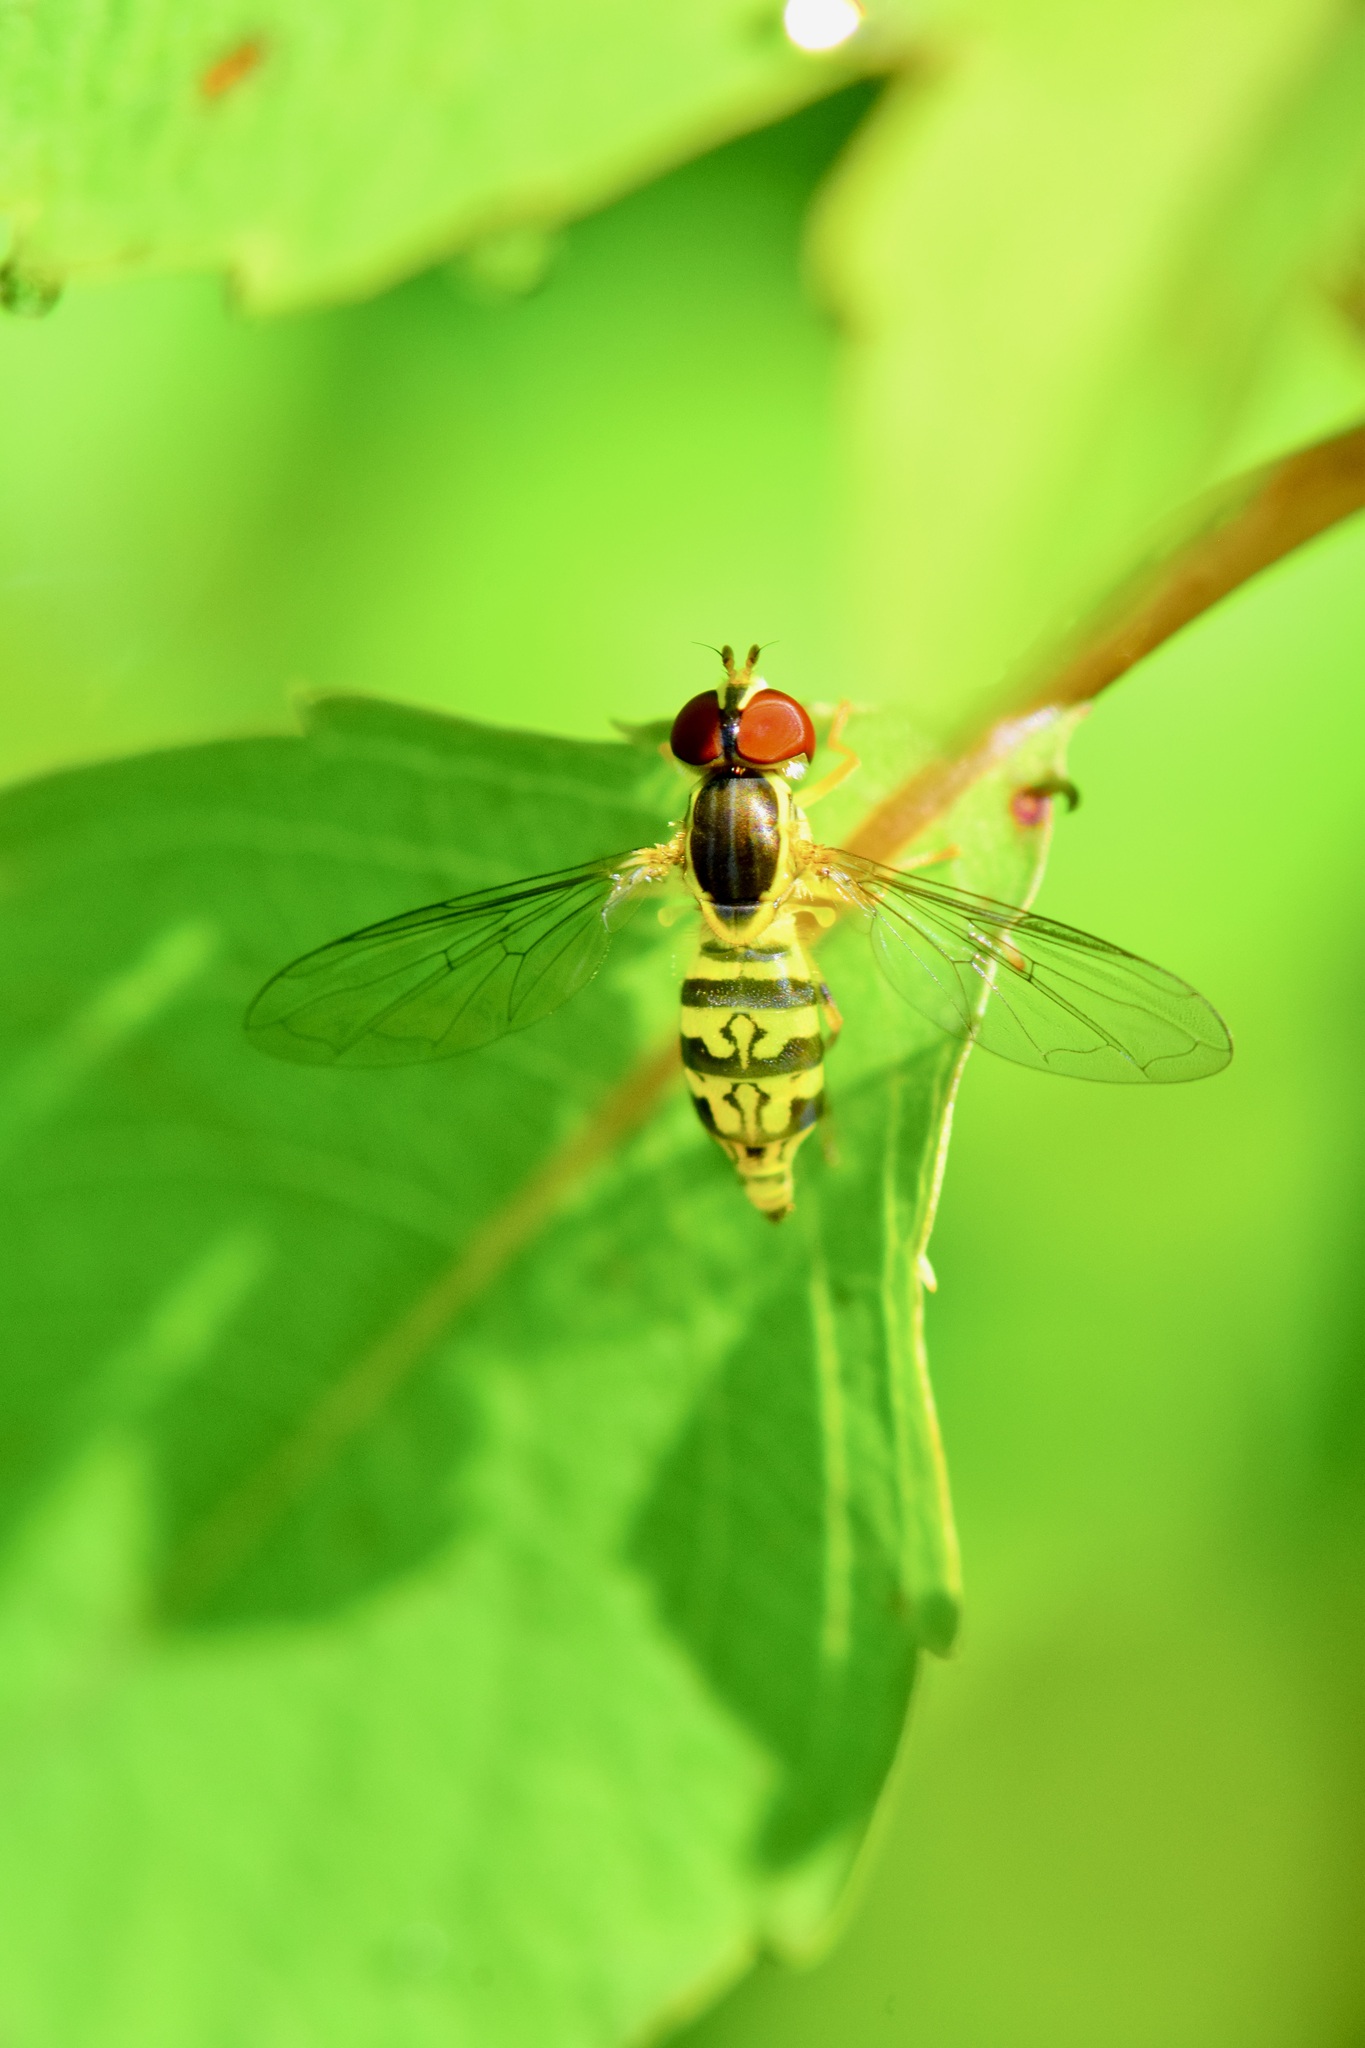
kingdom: Animalia
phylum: Arthropoda
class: Insecta
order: Diptera
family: Syrphidae
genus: Toxomerus
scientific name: Toxomerus geminatus
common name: Eastern calligrapher
